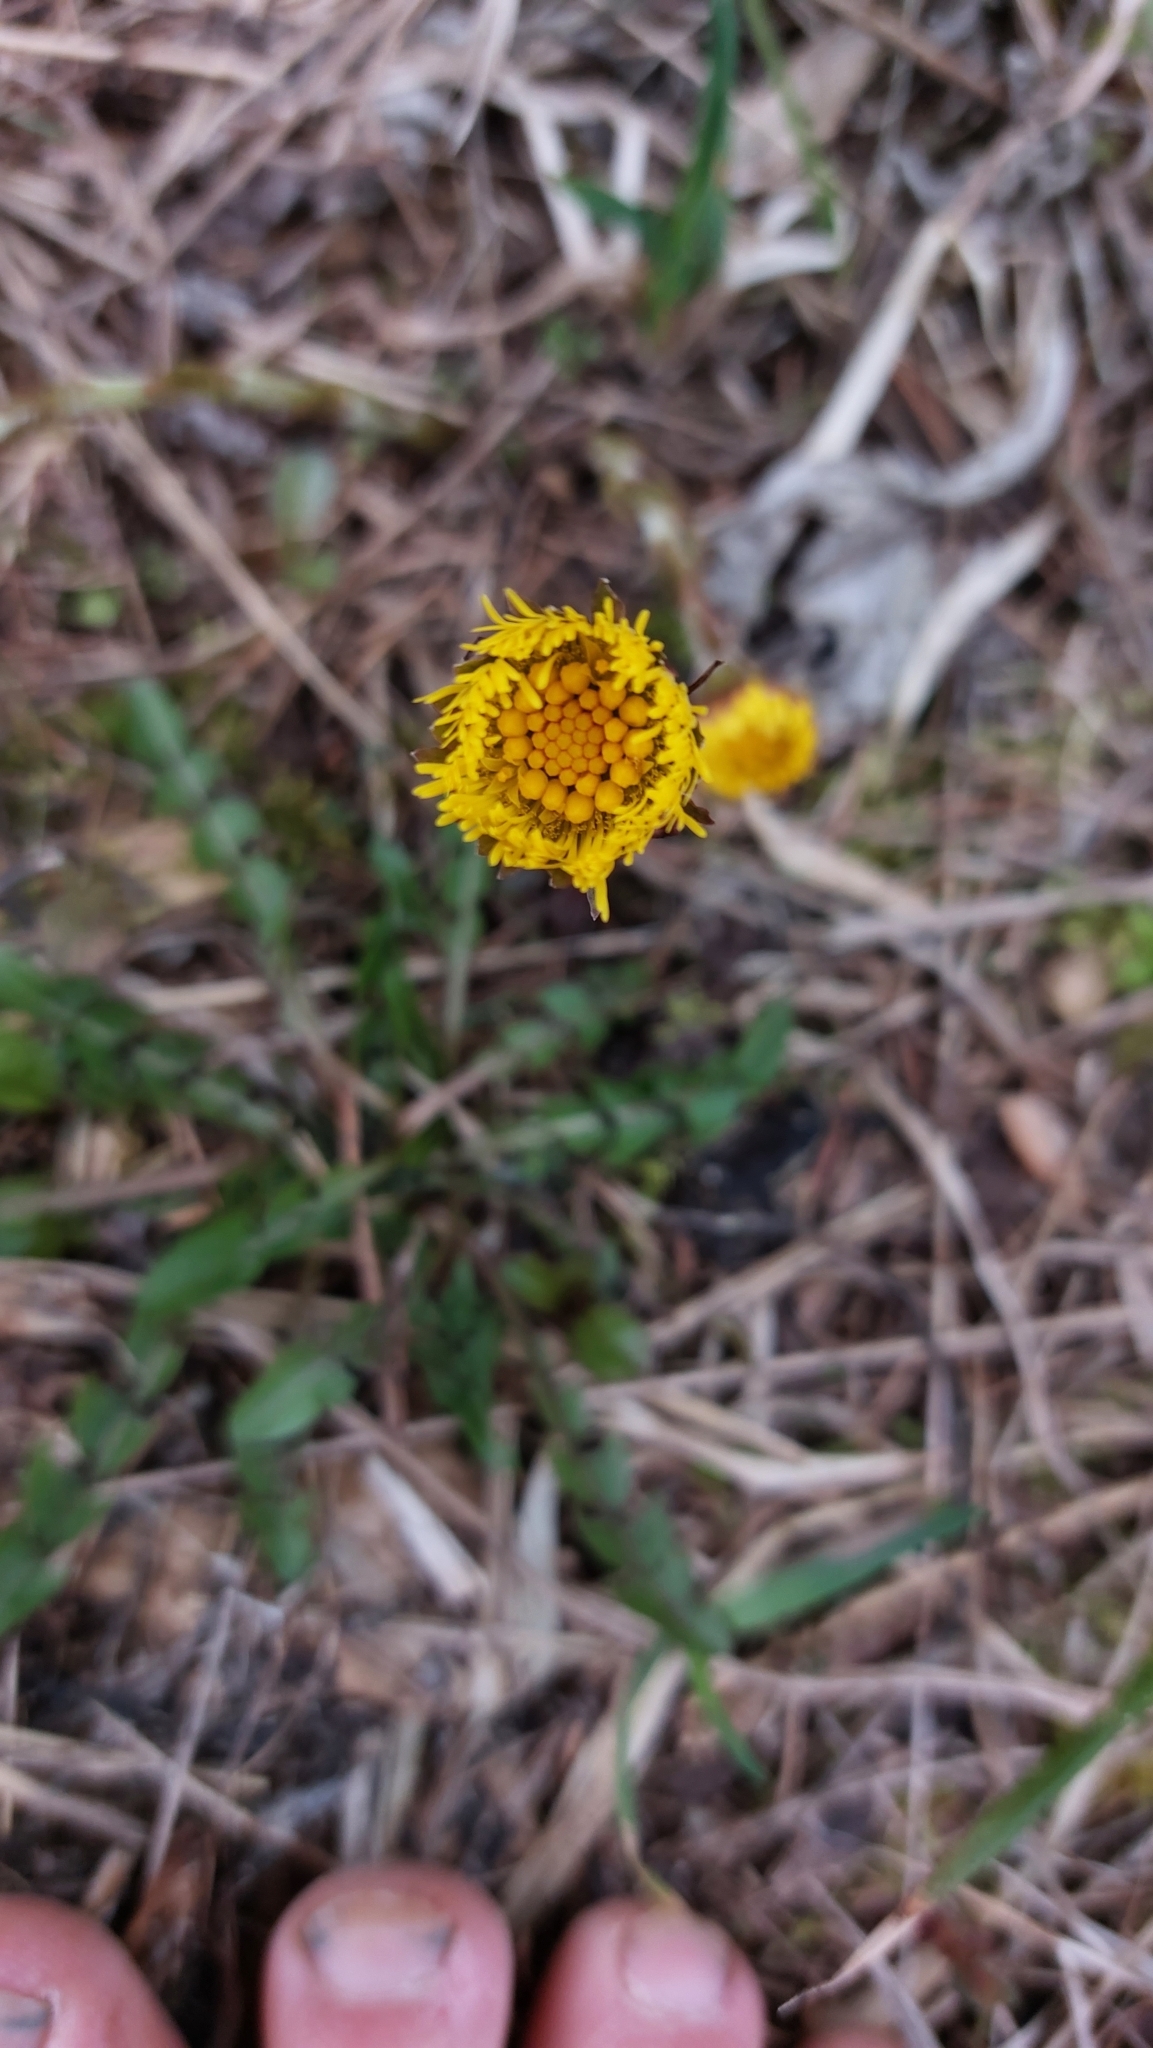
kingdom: Plantae
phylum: Tracheophyta
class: Magnoliopsida
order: Asterales
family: Asteraceae
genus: Tussilago
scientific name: Tussilago farfara
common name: Coltsfoot
